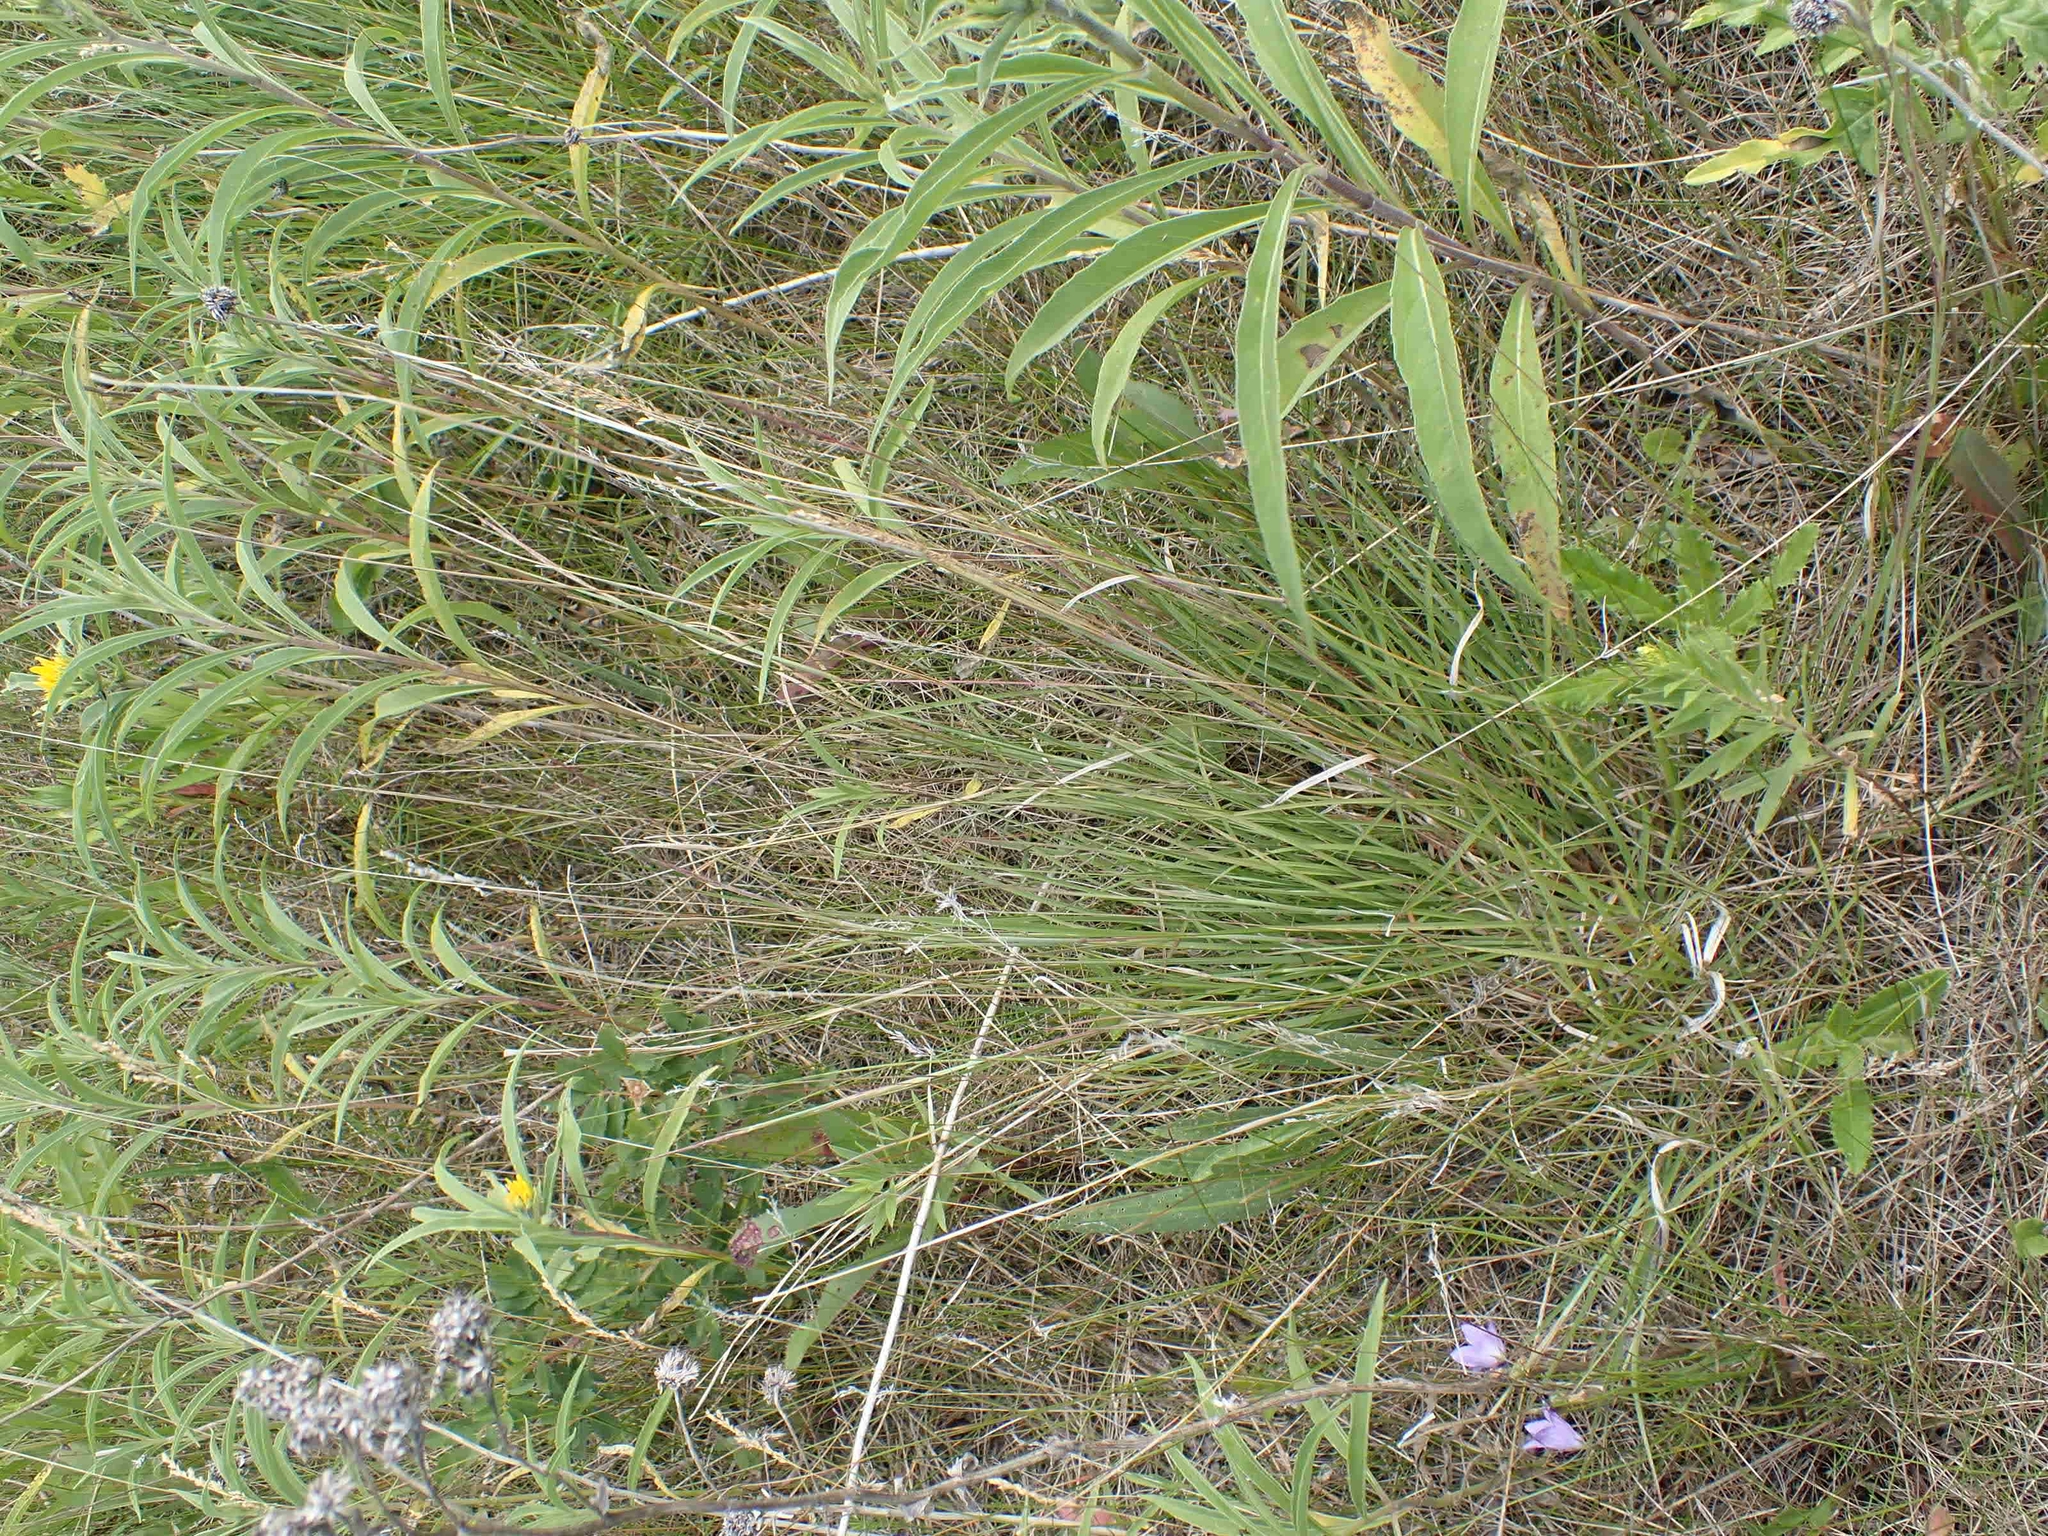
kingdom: Plantae
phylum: Tracheophyta
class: Liliopsida
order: Poales
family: Poaceae
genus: Schizachyrium
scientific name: Schizachyrium scoparium
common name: Little bluestem
